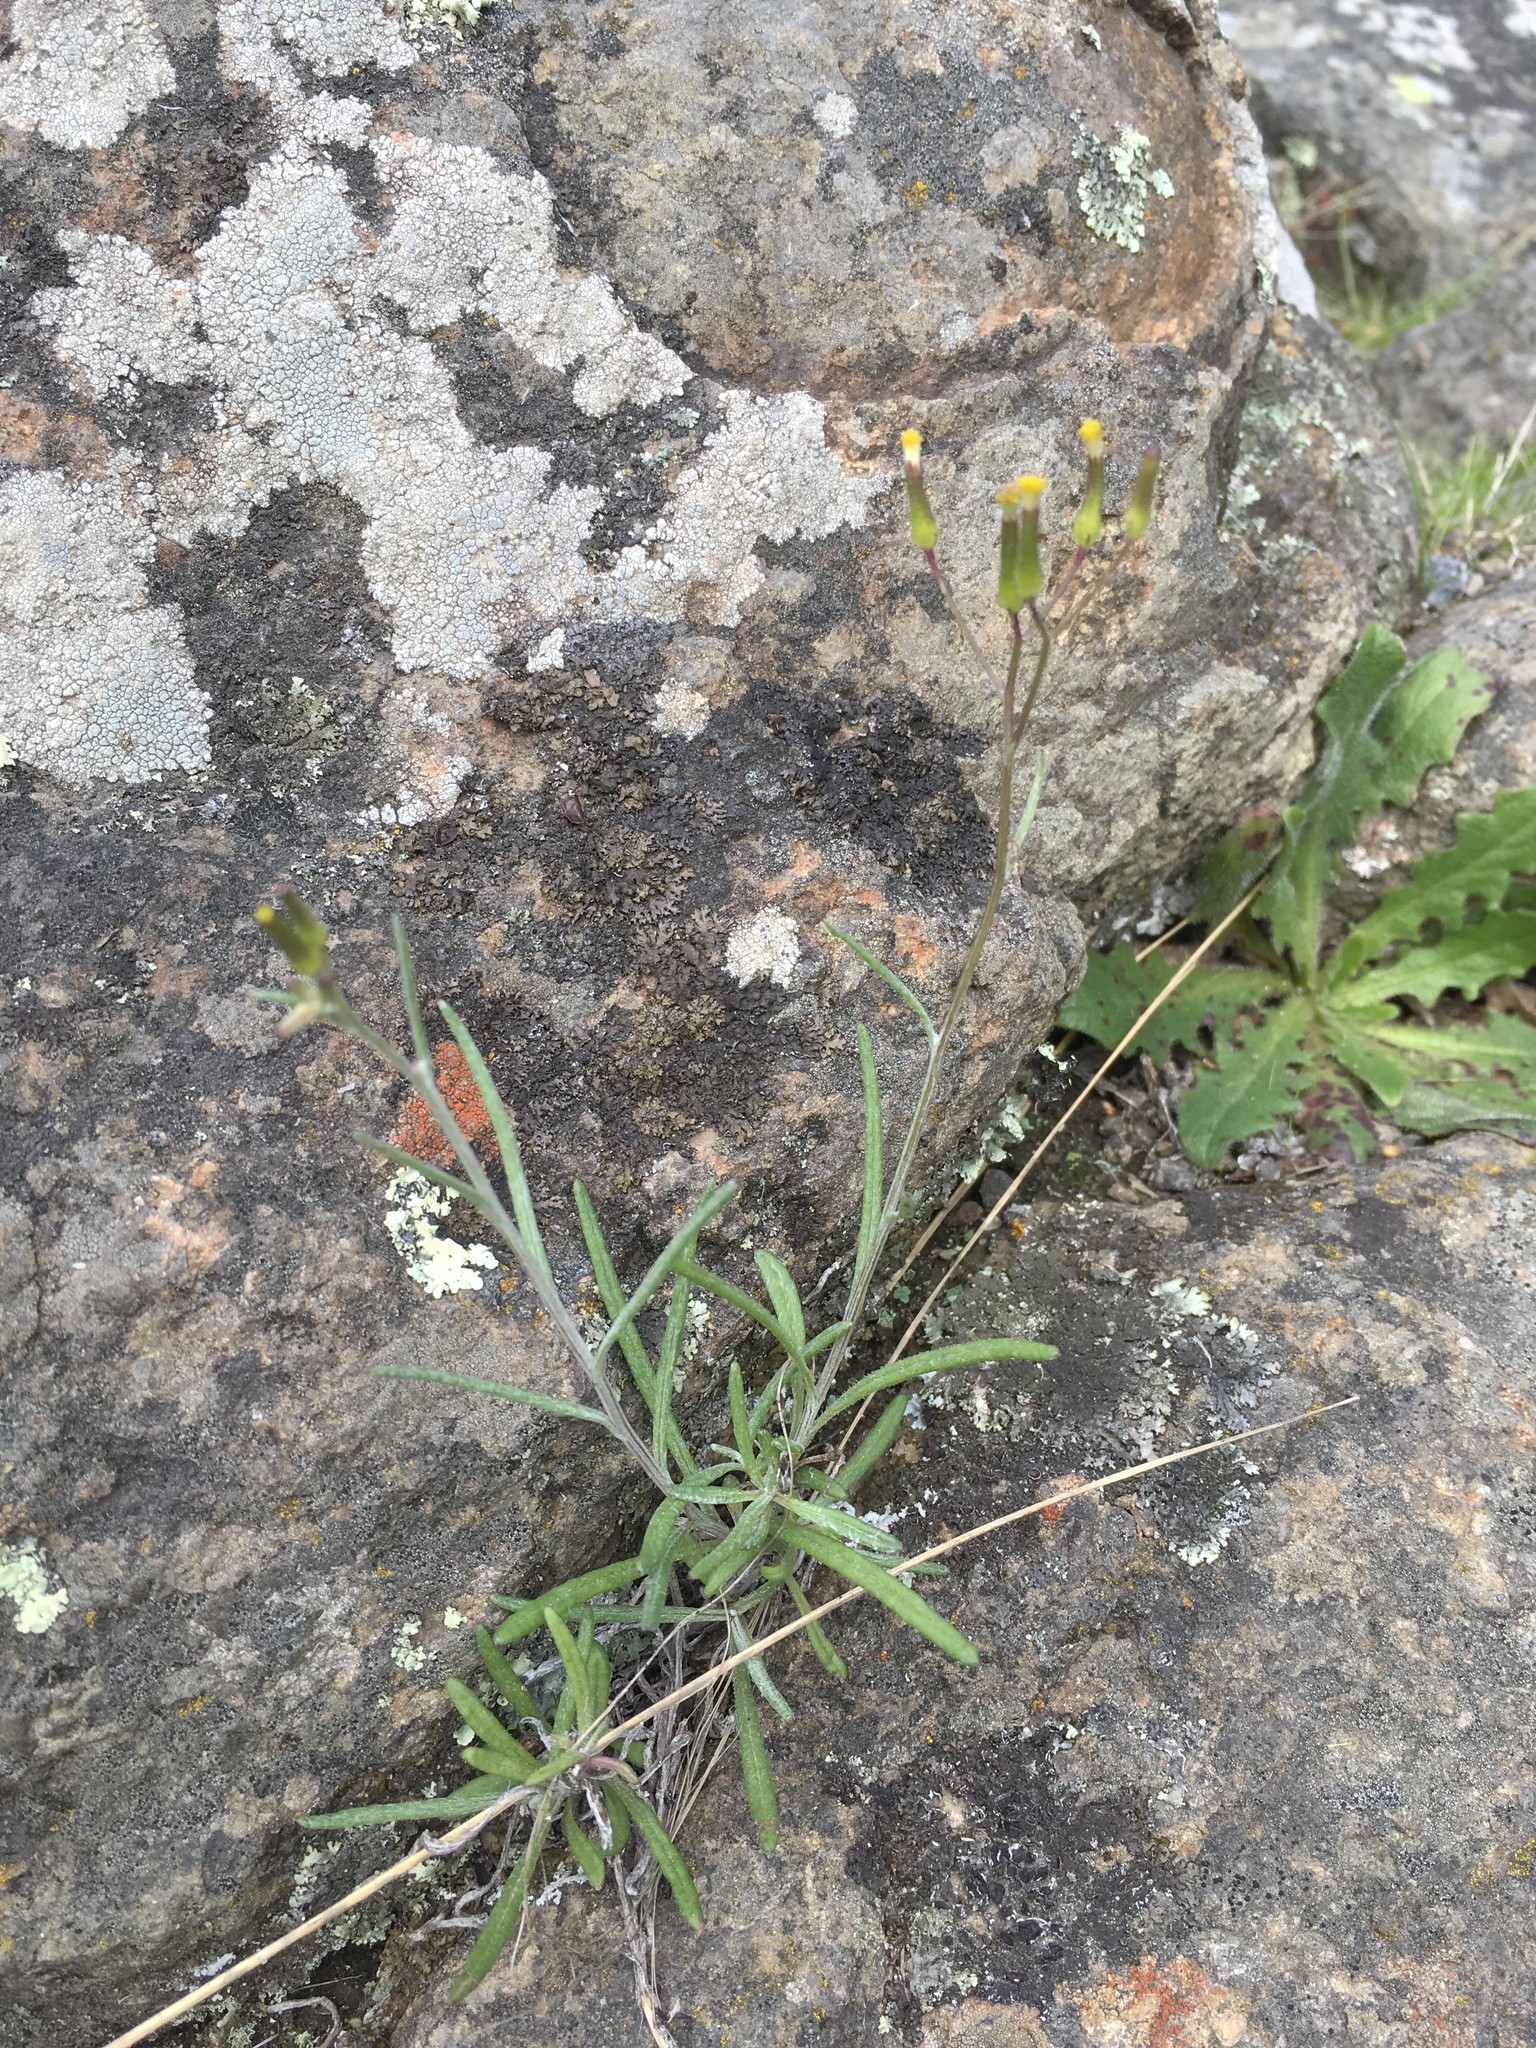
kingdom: Plantae
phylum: Tracheophyta
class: Magnoliopsida
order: Asterales
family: Asteraceae
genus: Senecio
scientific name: Senecio quadridentatus
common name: Cotton fireweed
